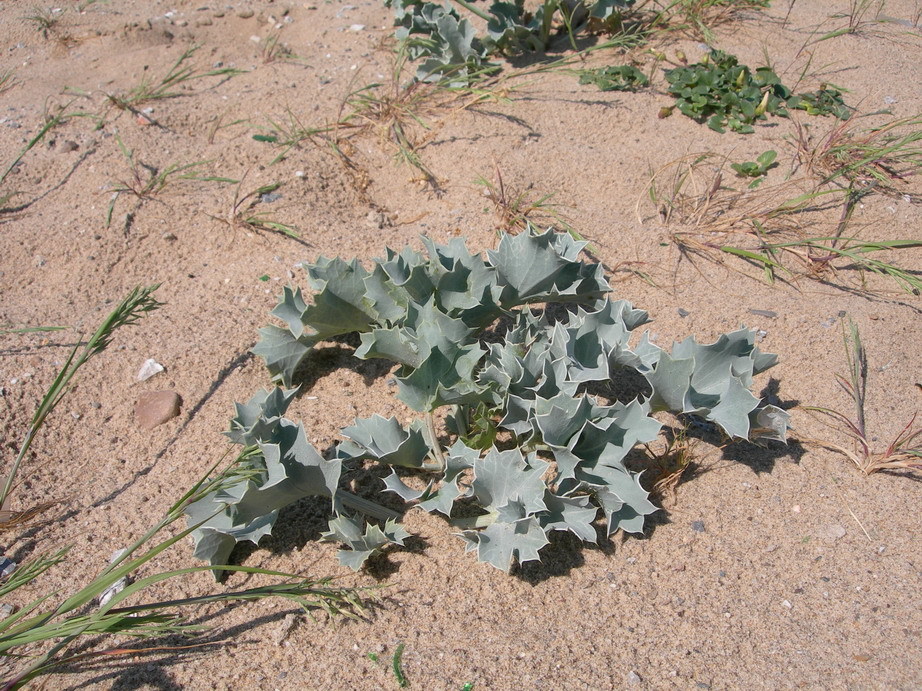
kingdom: Plantae
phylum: Tracheophyta
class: Magnoliopsida
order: Apiales
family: Apiaceae
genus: Eryngium
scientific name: Eryngium maritimum
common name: Sea-holly
